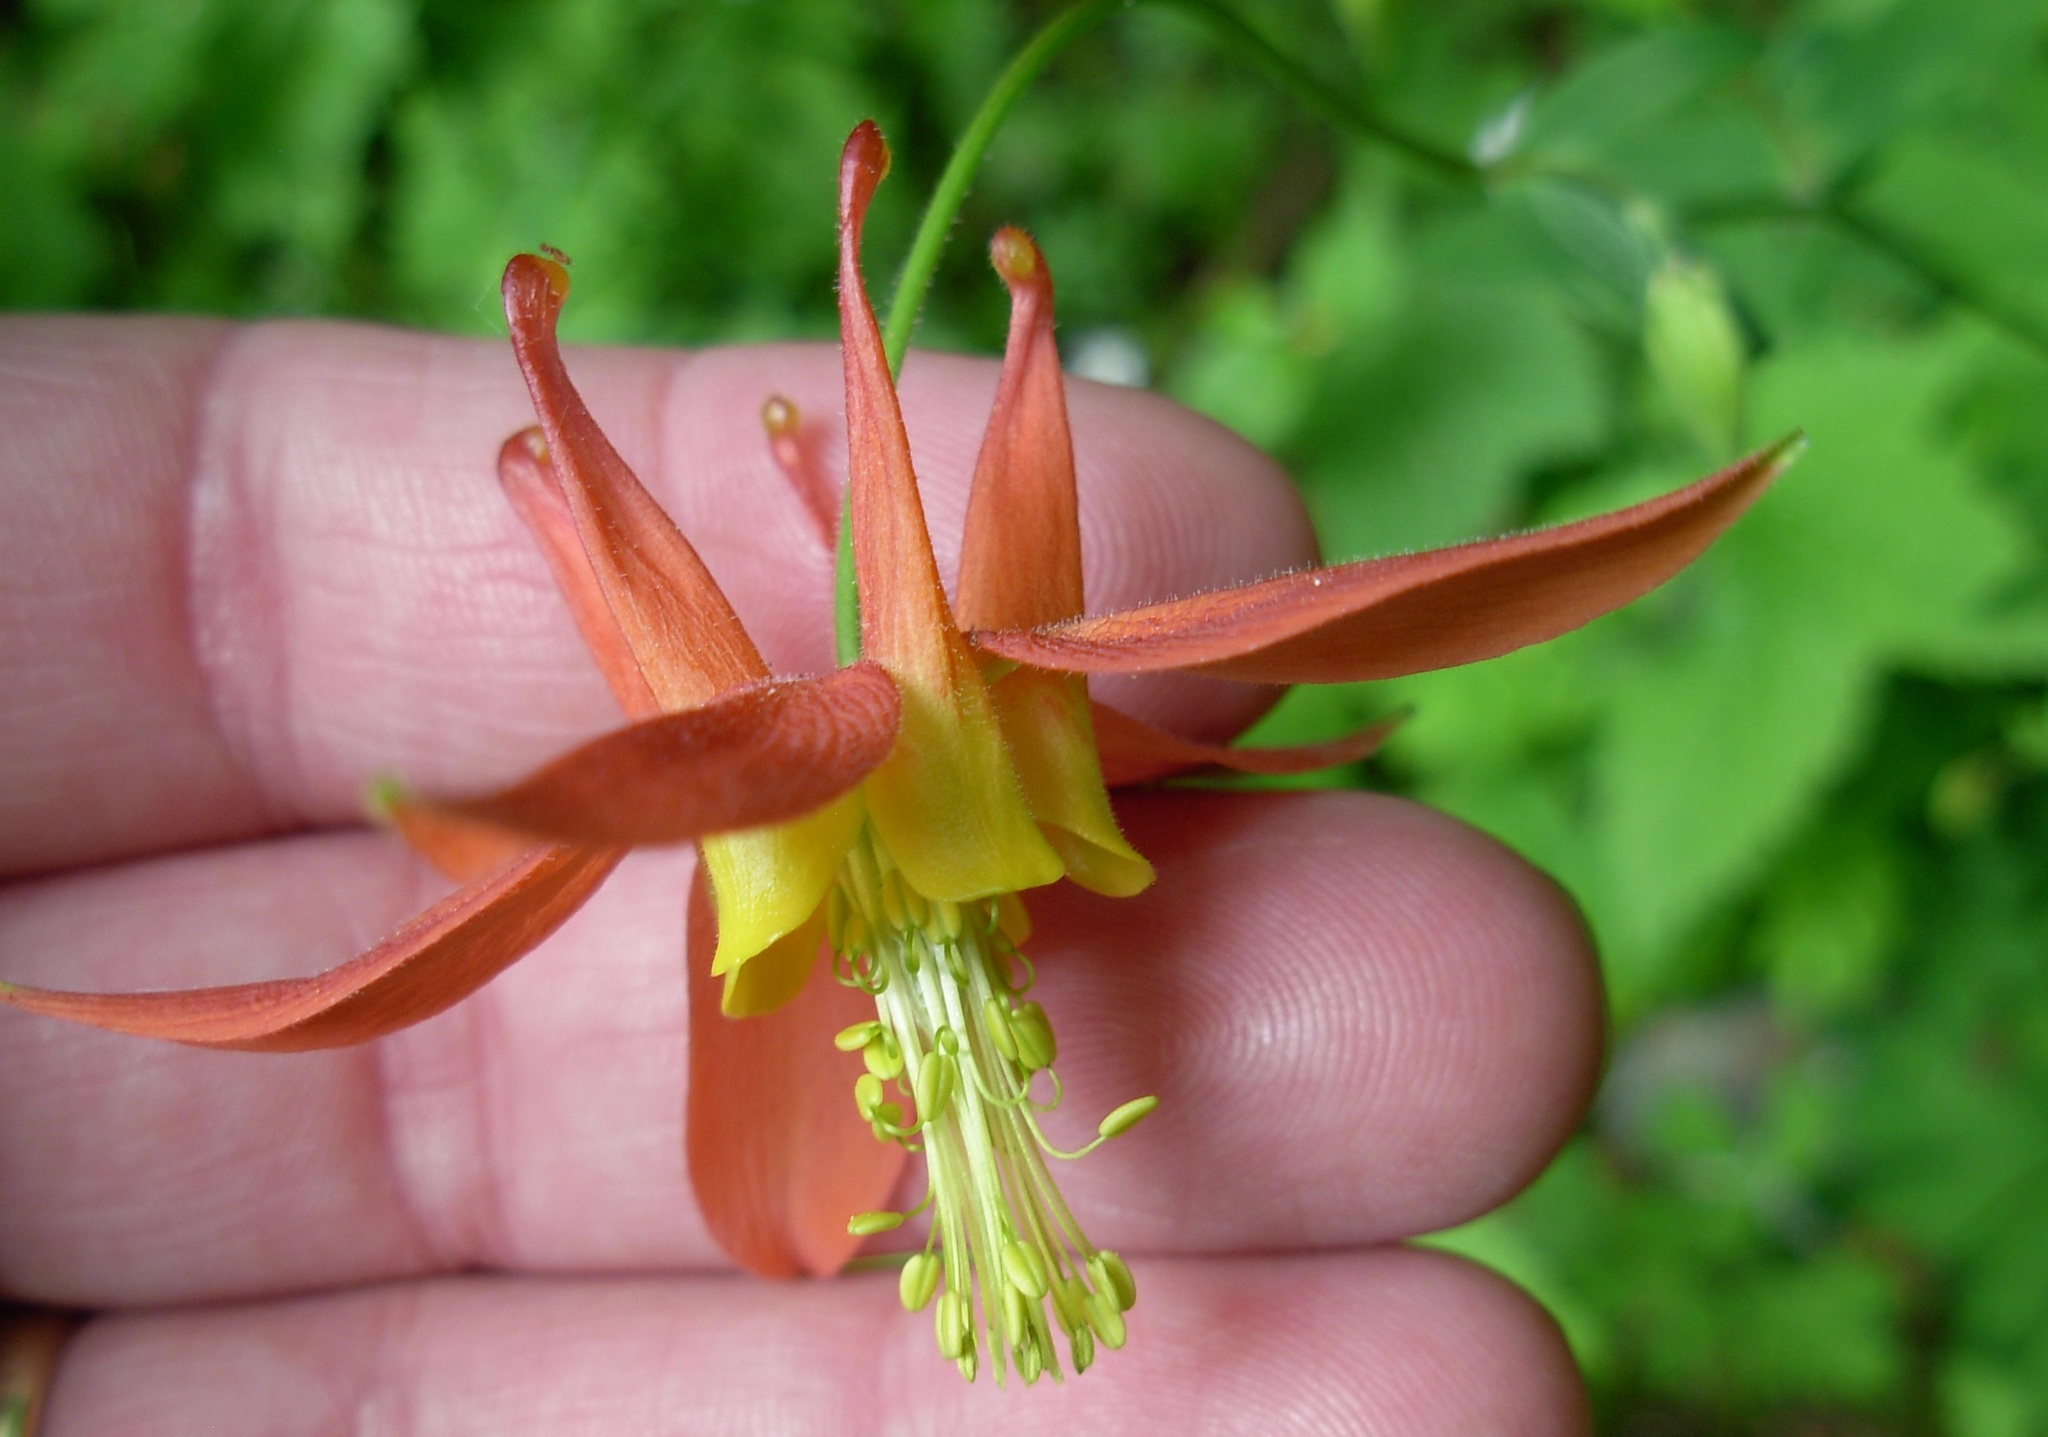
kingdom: Plantae
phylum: Tracheophyta
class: Magnoliopsida
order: Ranunculales
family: Ranunculaceae
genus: Aquilegia
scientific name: Aquilegia formosa
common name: Sitka columbine
